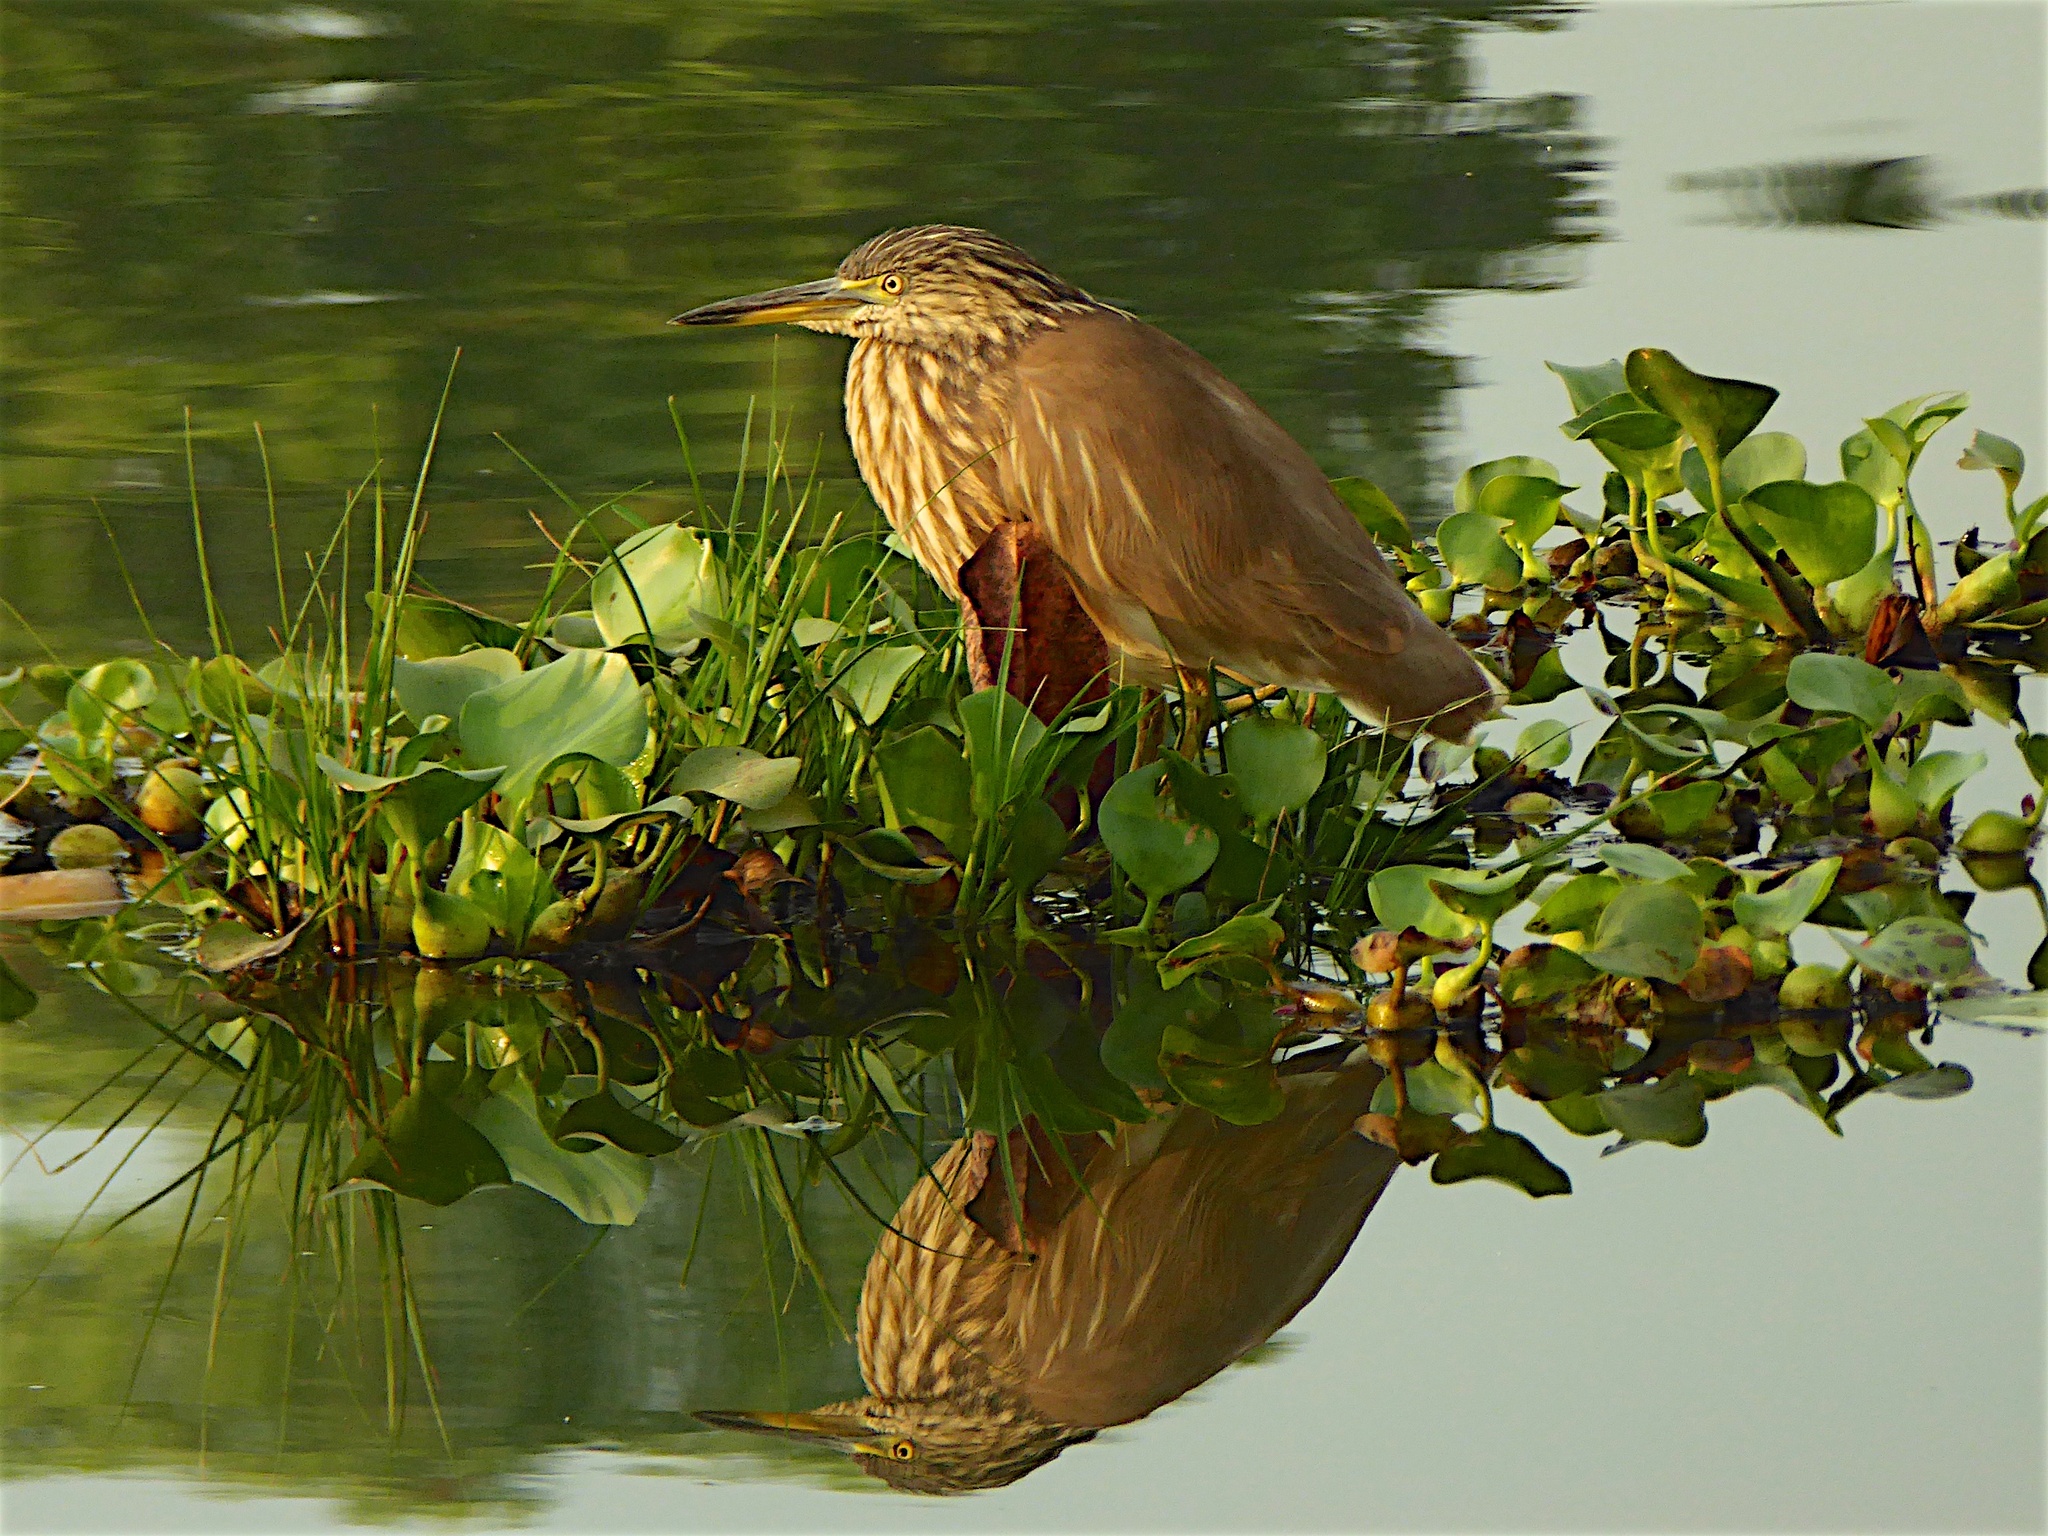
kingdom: Animalia
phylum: Chordata
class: Aves
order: Pelecaniformes
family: Ardeidae
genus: Ardeola
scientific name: Ardeola grayii
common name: Indian pond heron
